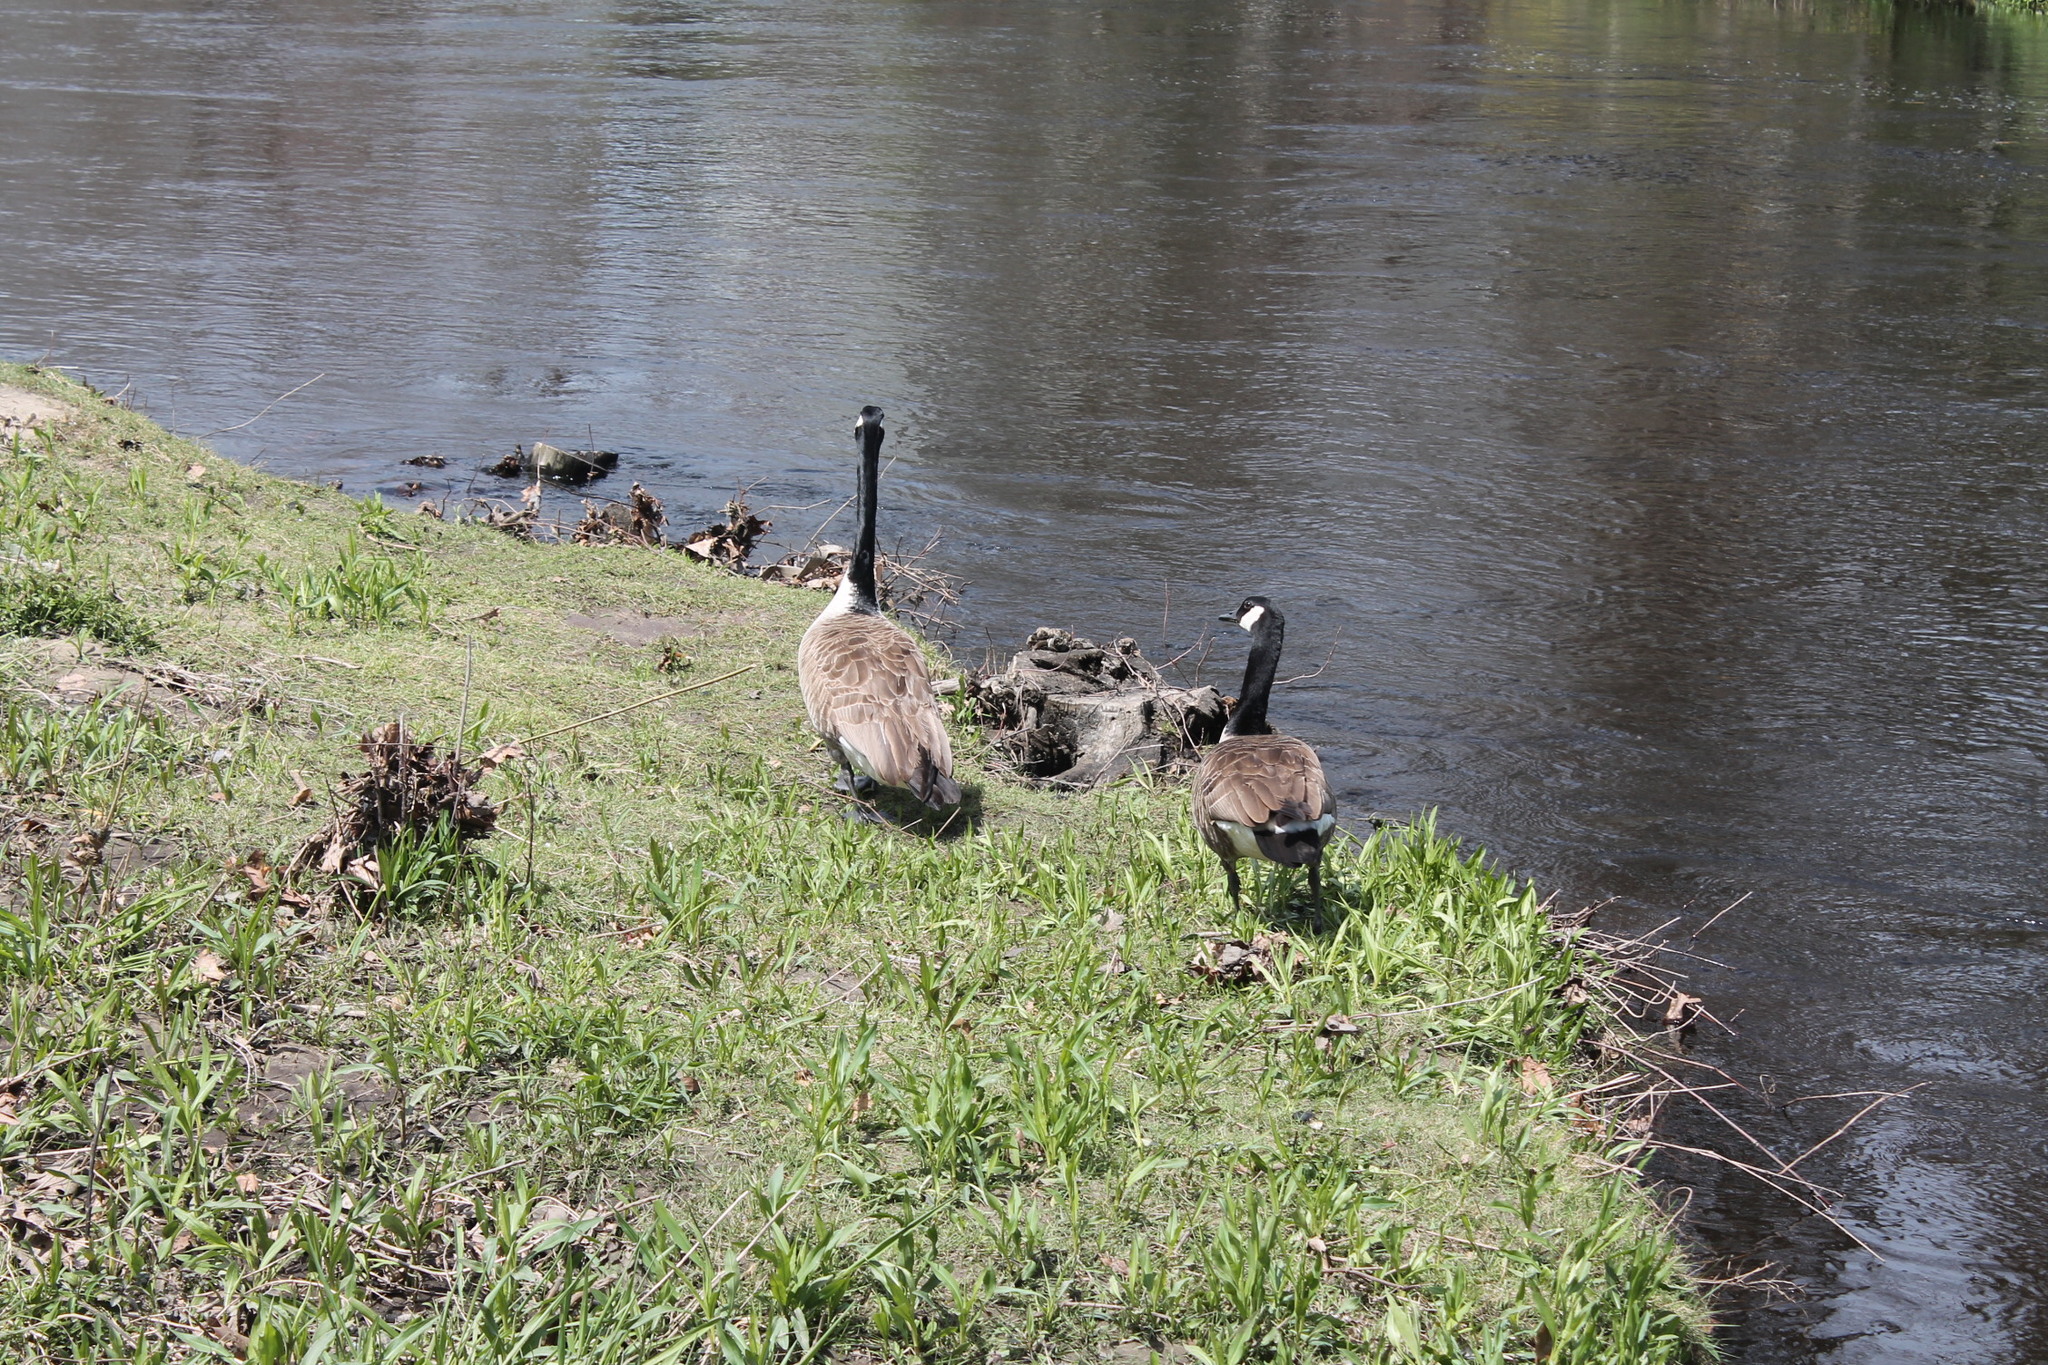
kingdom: Animalia
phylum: Chordata
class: Aves
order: Anseriformes
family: Anatidae
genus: Branta
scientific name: Branta canadensis
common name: Canada goose
